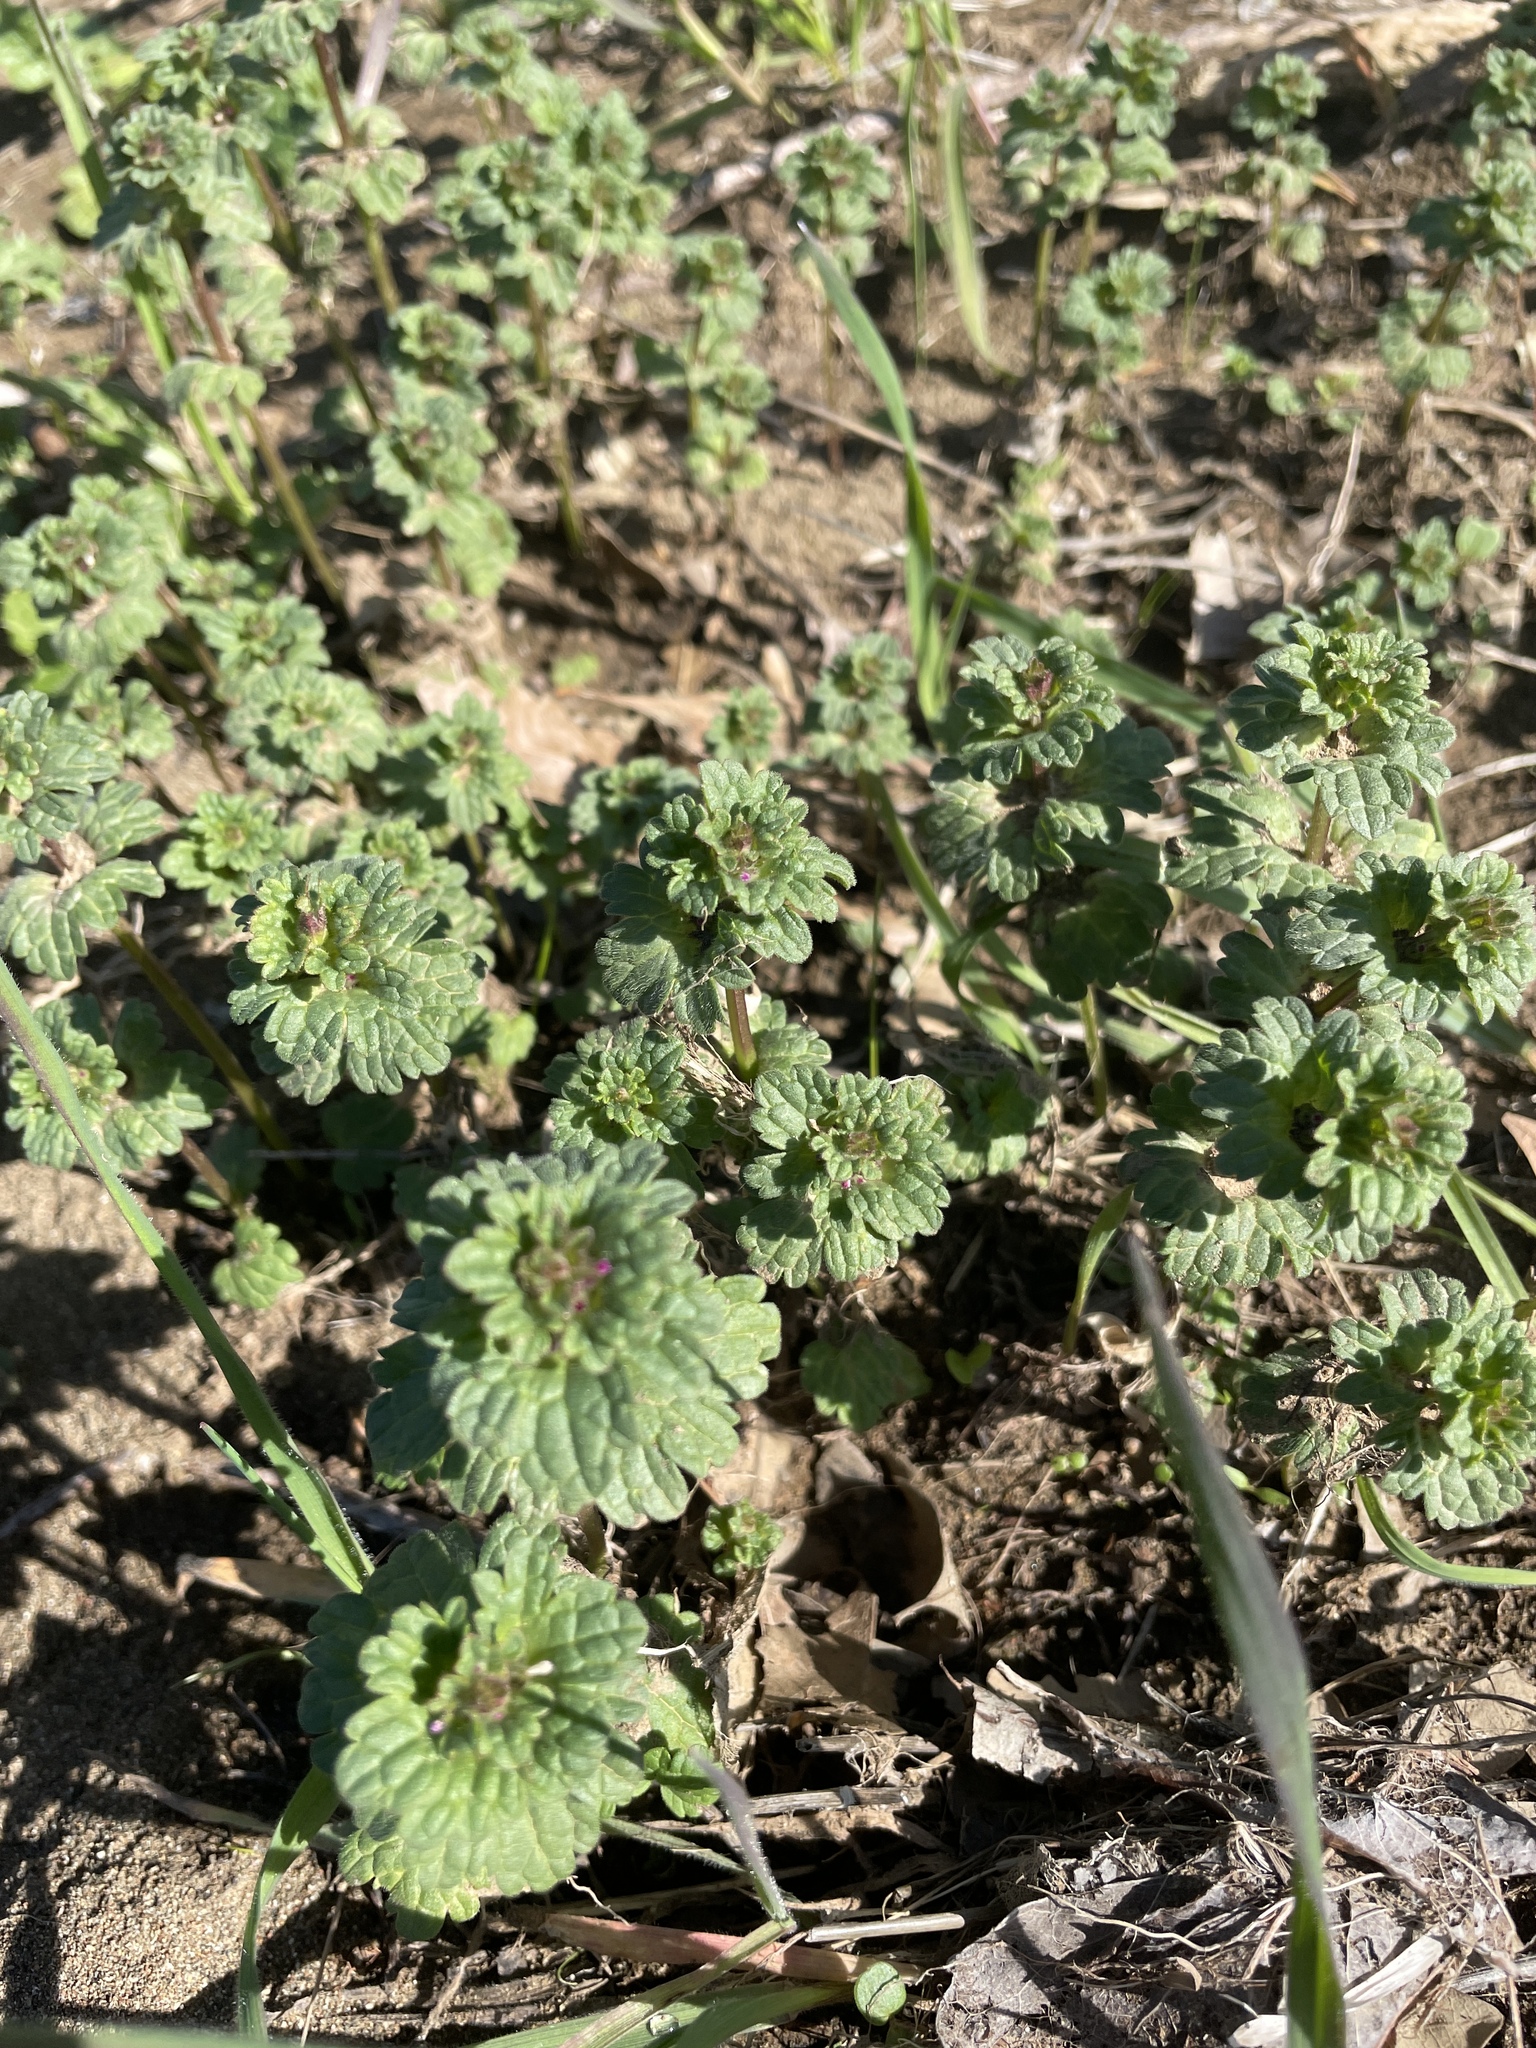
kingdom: Plantae
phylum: Tracheophyta
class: Magnoliopsida
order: Lamiales
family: Lamiaceae
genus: Lamium
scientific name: Lamium amplexicaule
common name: Henbit dead-nettle
